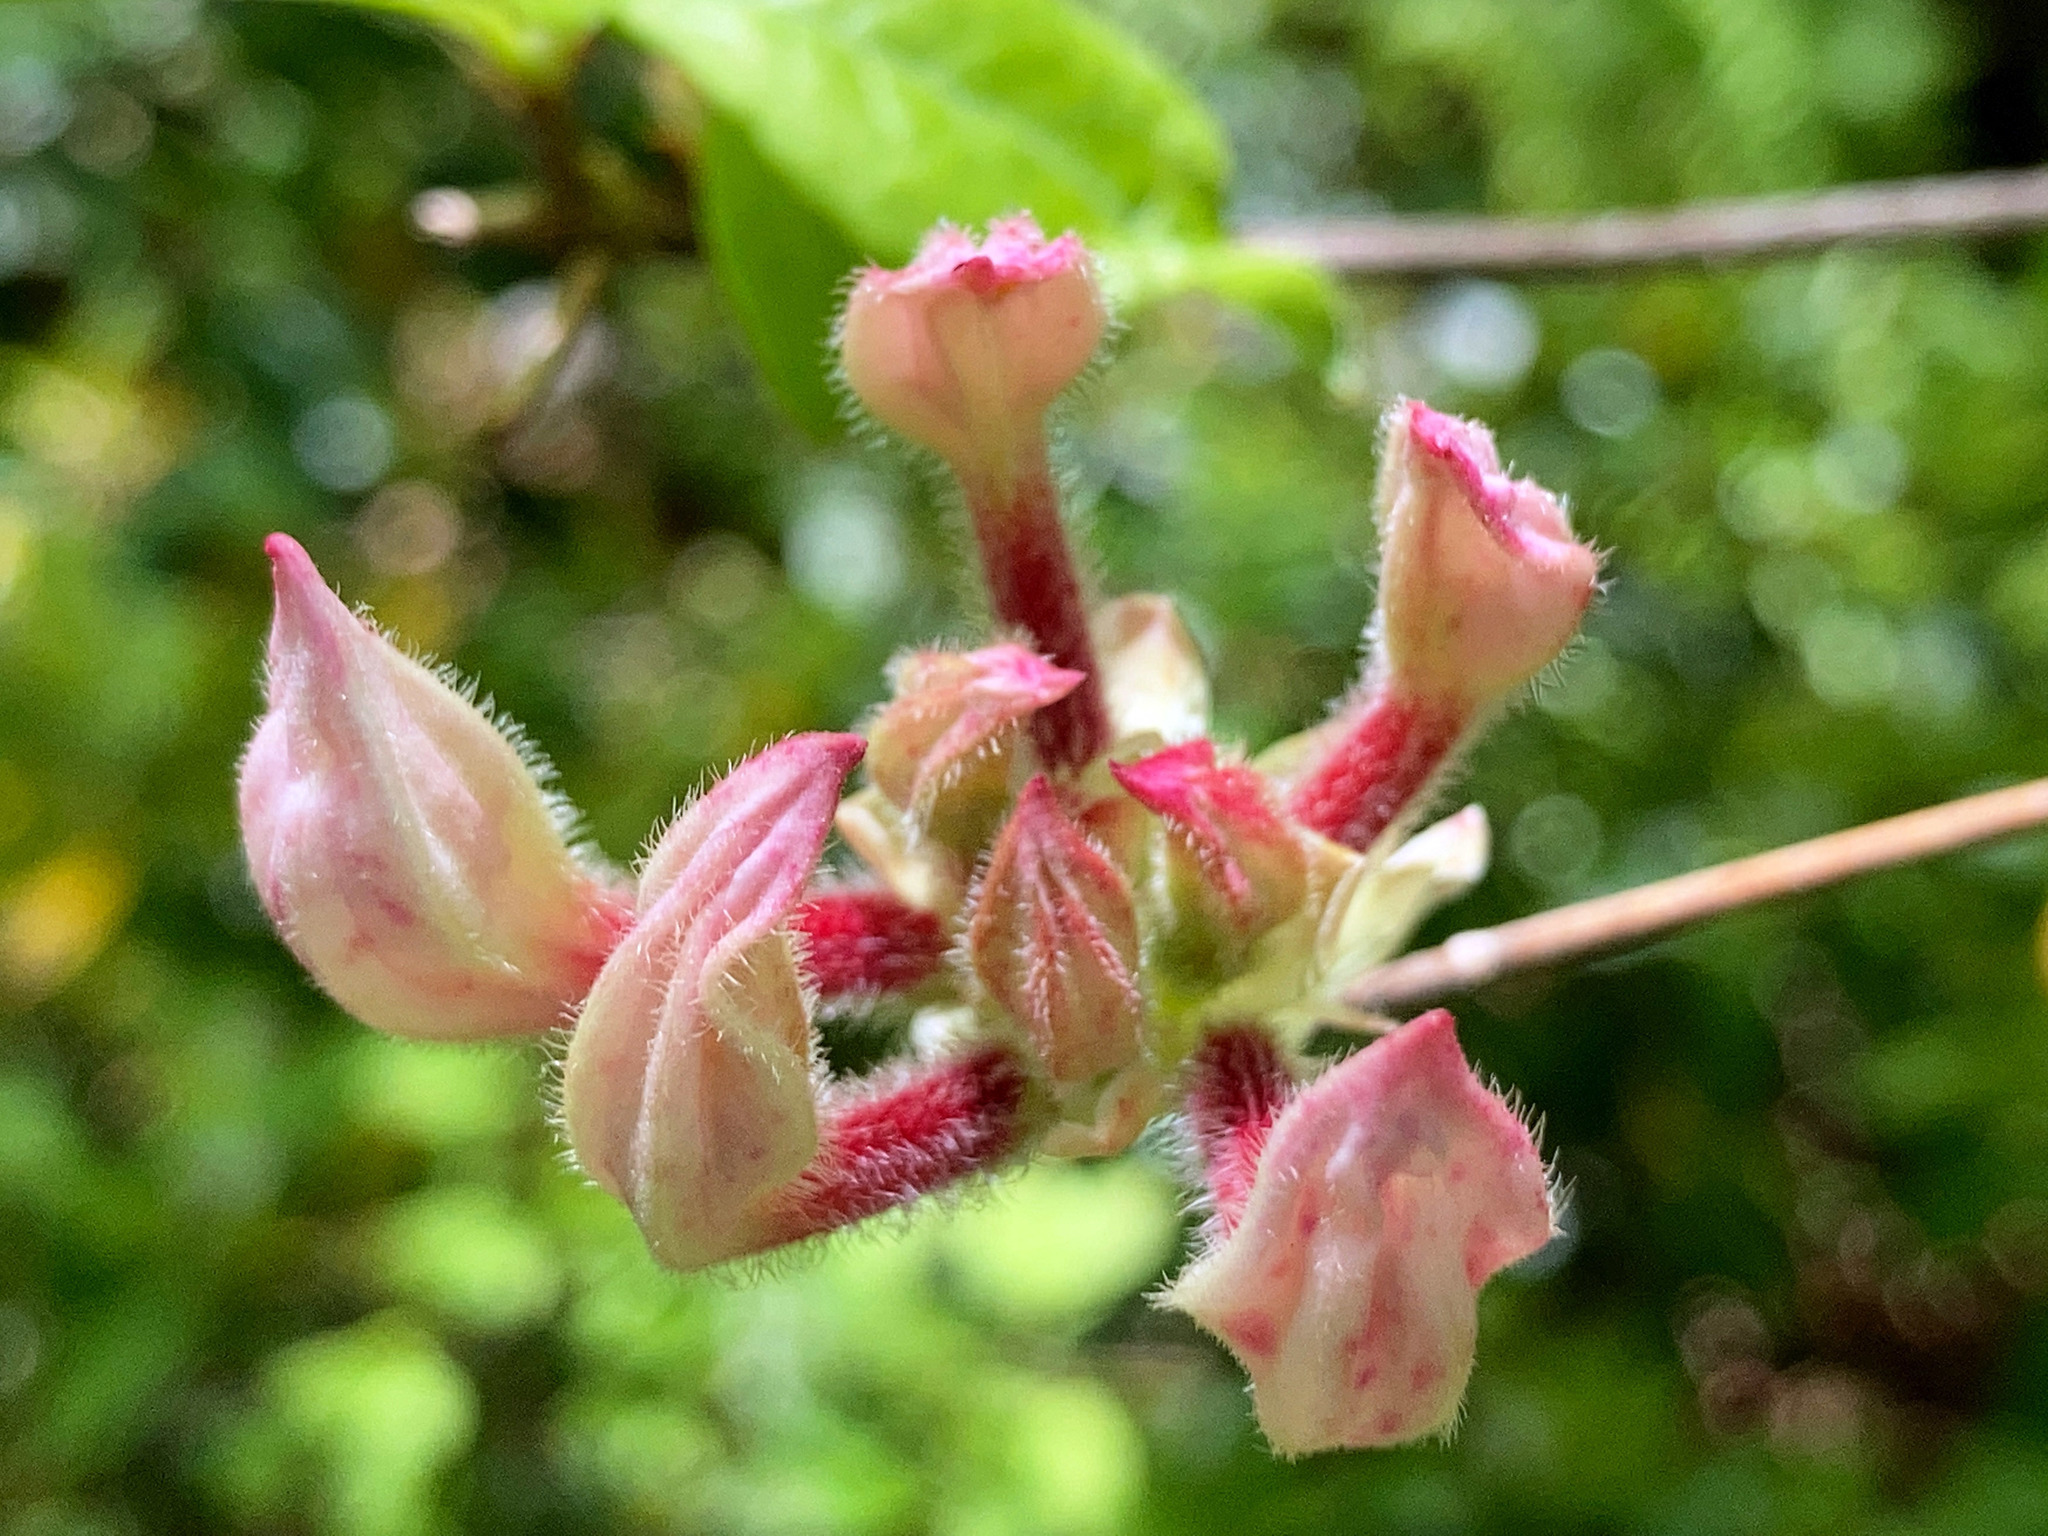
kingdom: Plantae
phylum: Tracheophyta
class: Magnoliopsida
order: Ericales
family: Ericaceae
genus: Rhododendron
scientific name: Rhododendron periclymenoides
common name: Election-pink
